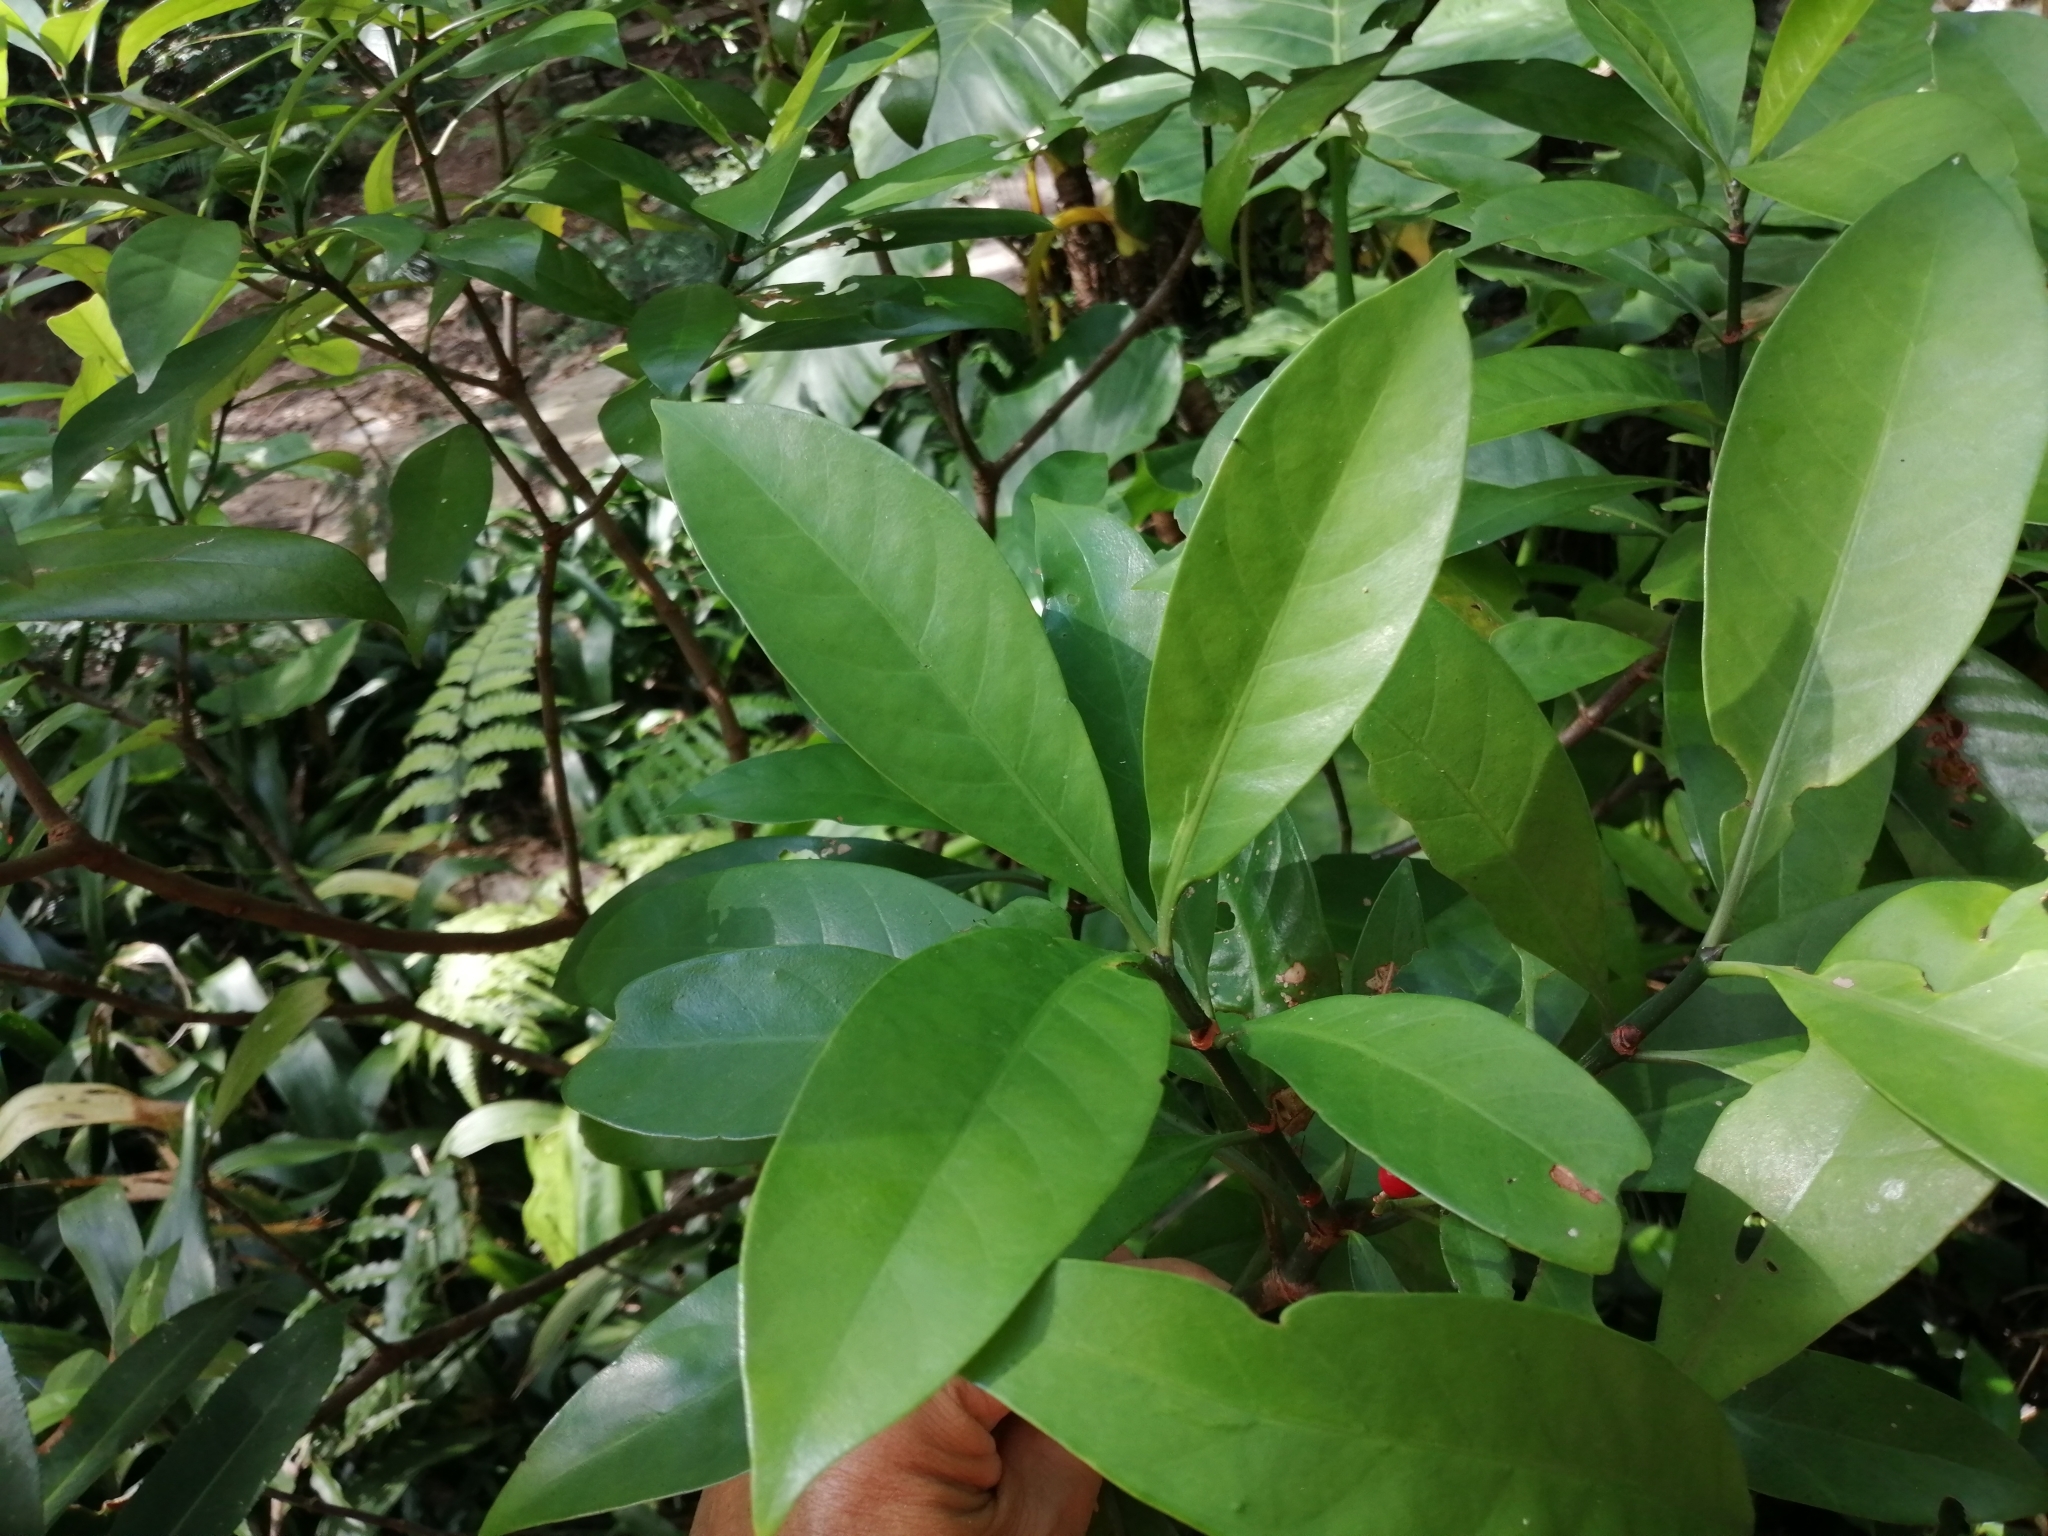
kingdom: Plantae
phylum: Tracheophyta
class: Magnoliopsida
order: Gentianales
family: Rubiaceae
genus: Psychotria
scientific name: Psychotria asiatica
